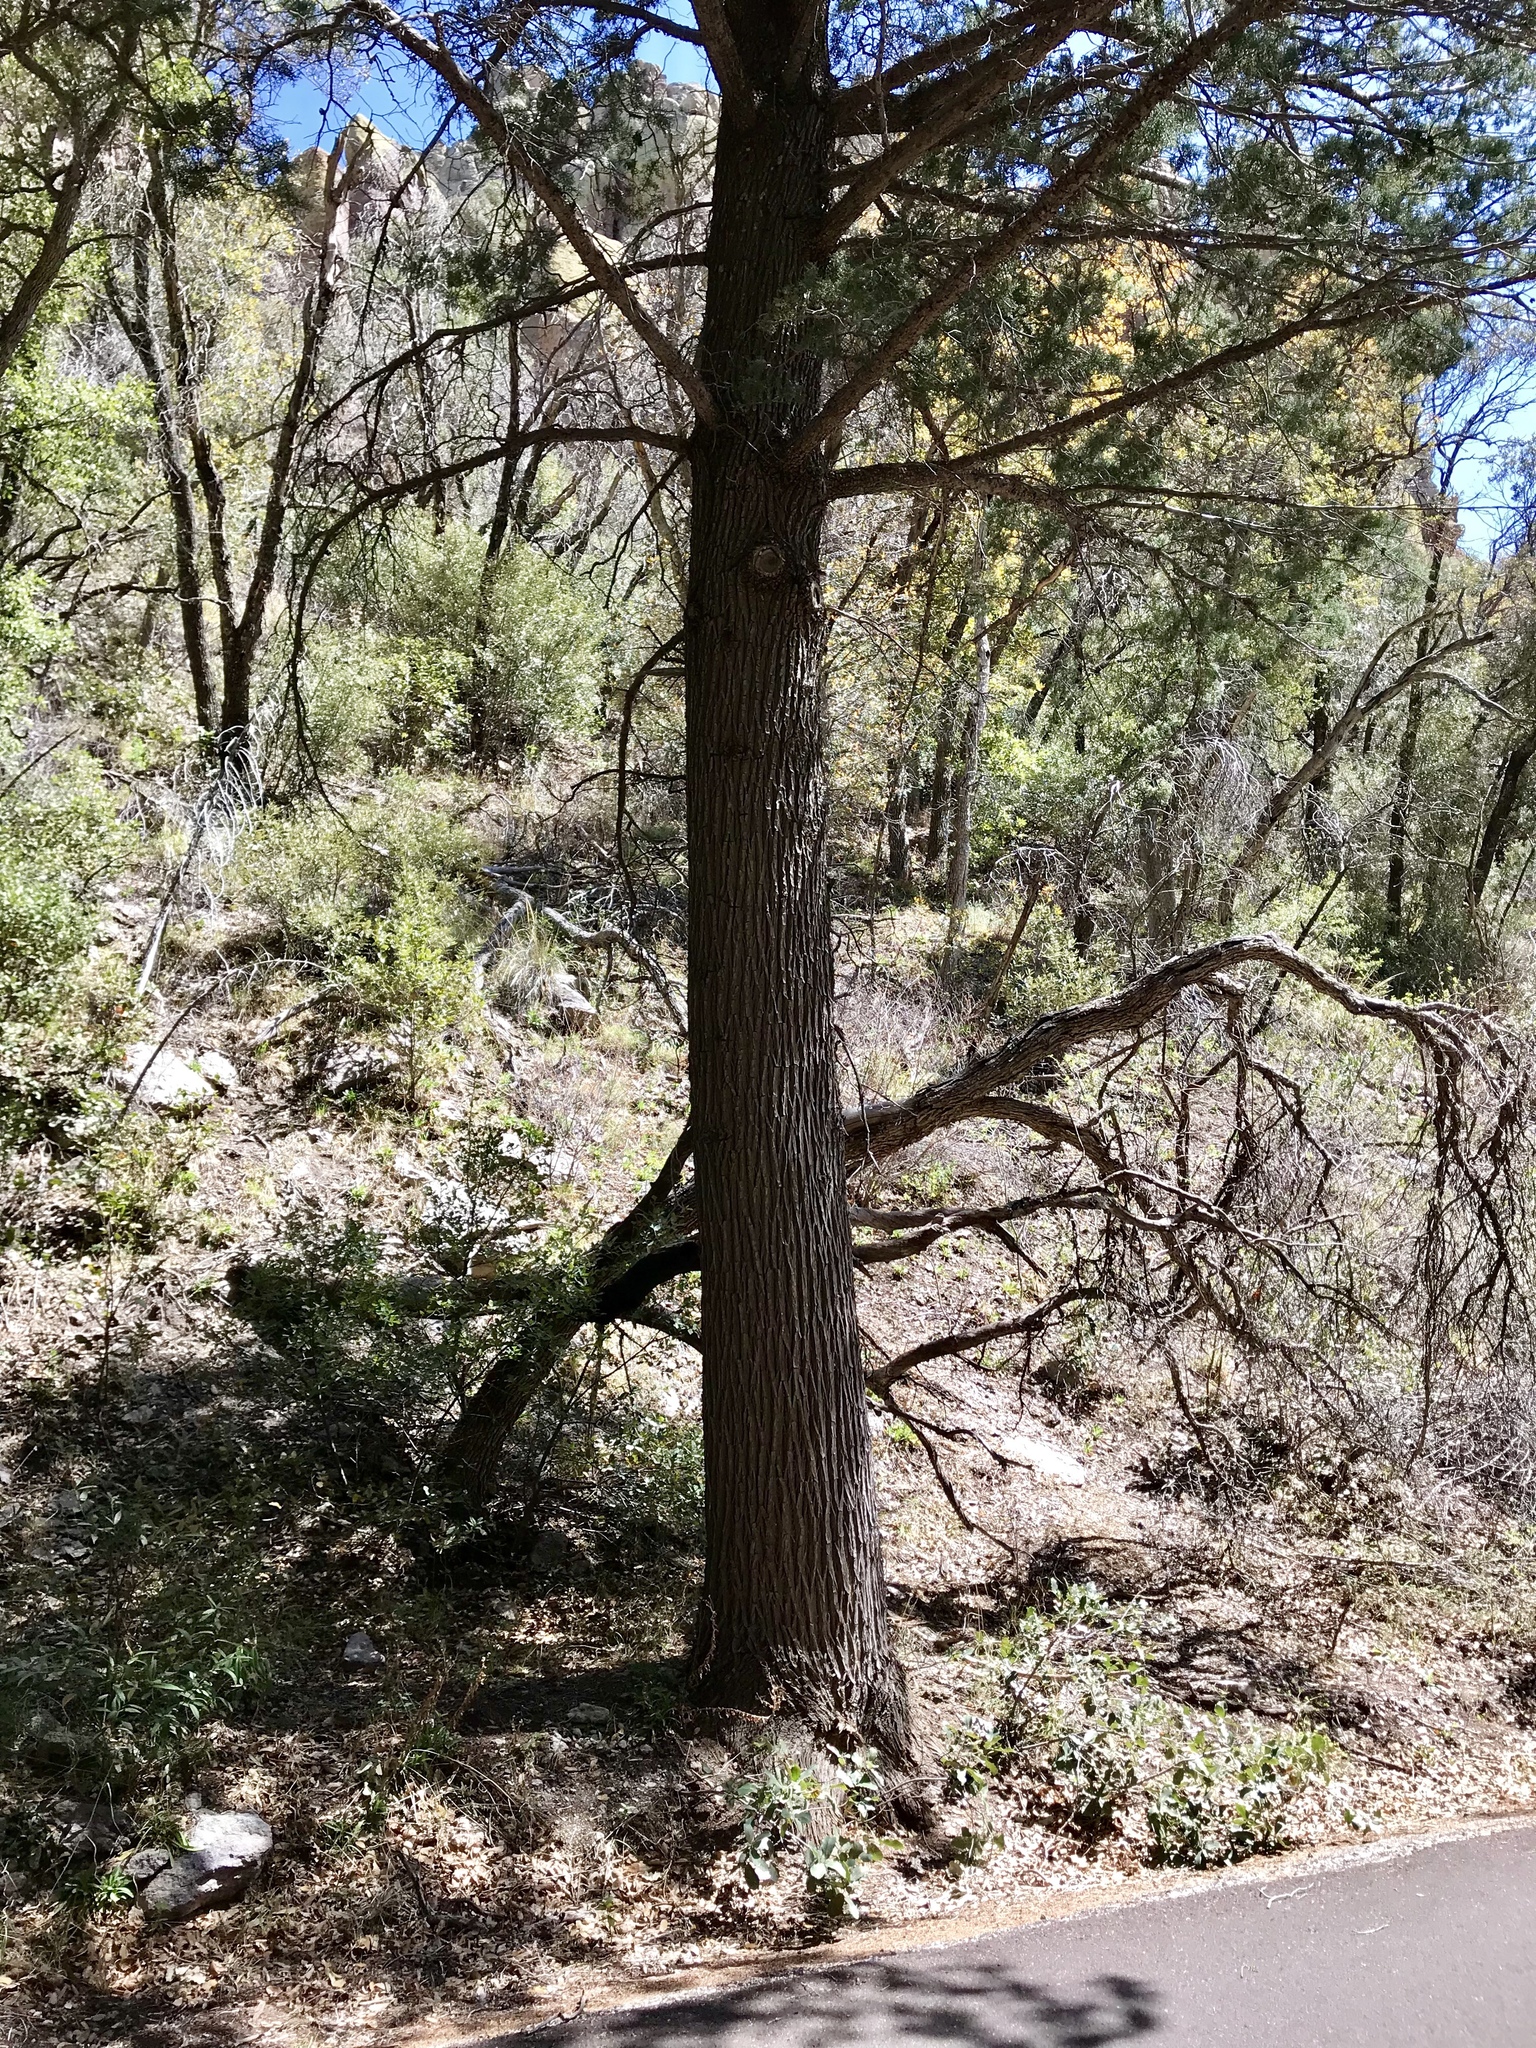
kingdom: Plantae
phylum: Tracheophyta
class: Pinopsida
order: Pinales
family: Cupressaceae
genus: Cupressus
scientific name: Cupressus arizonica
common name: Arizona cypress
